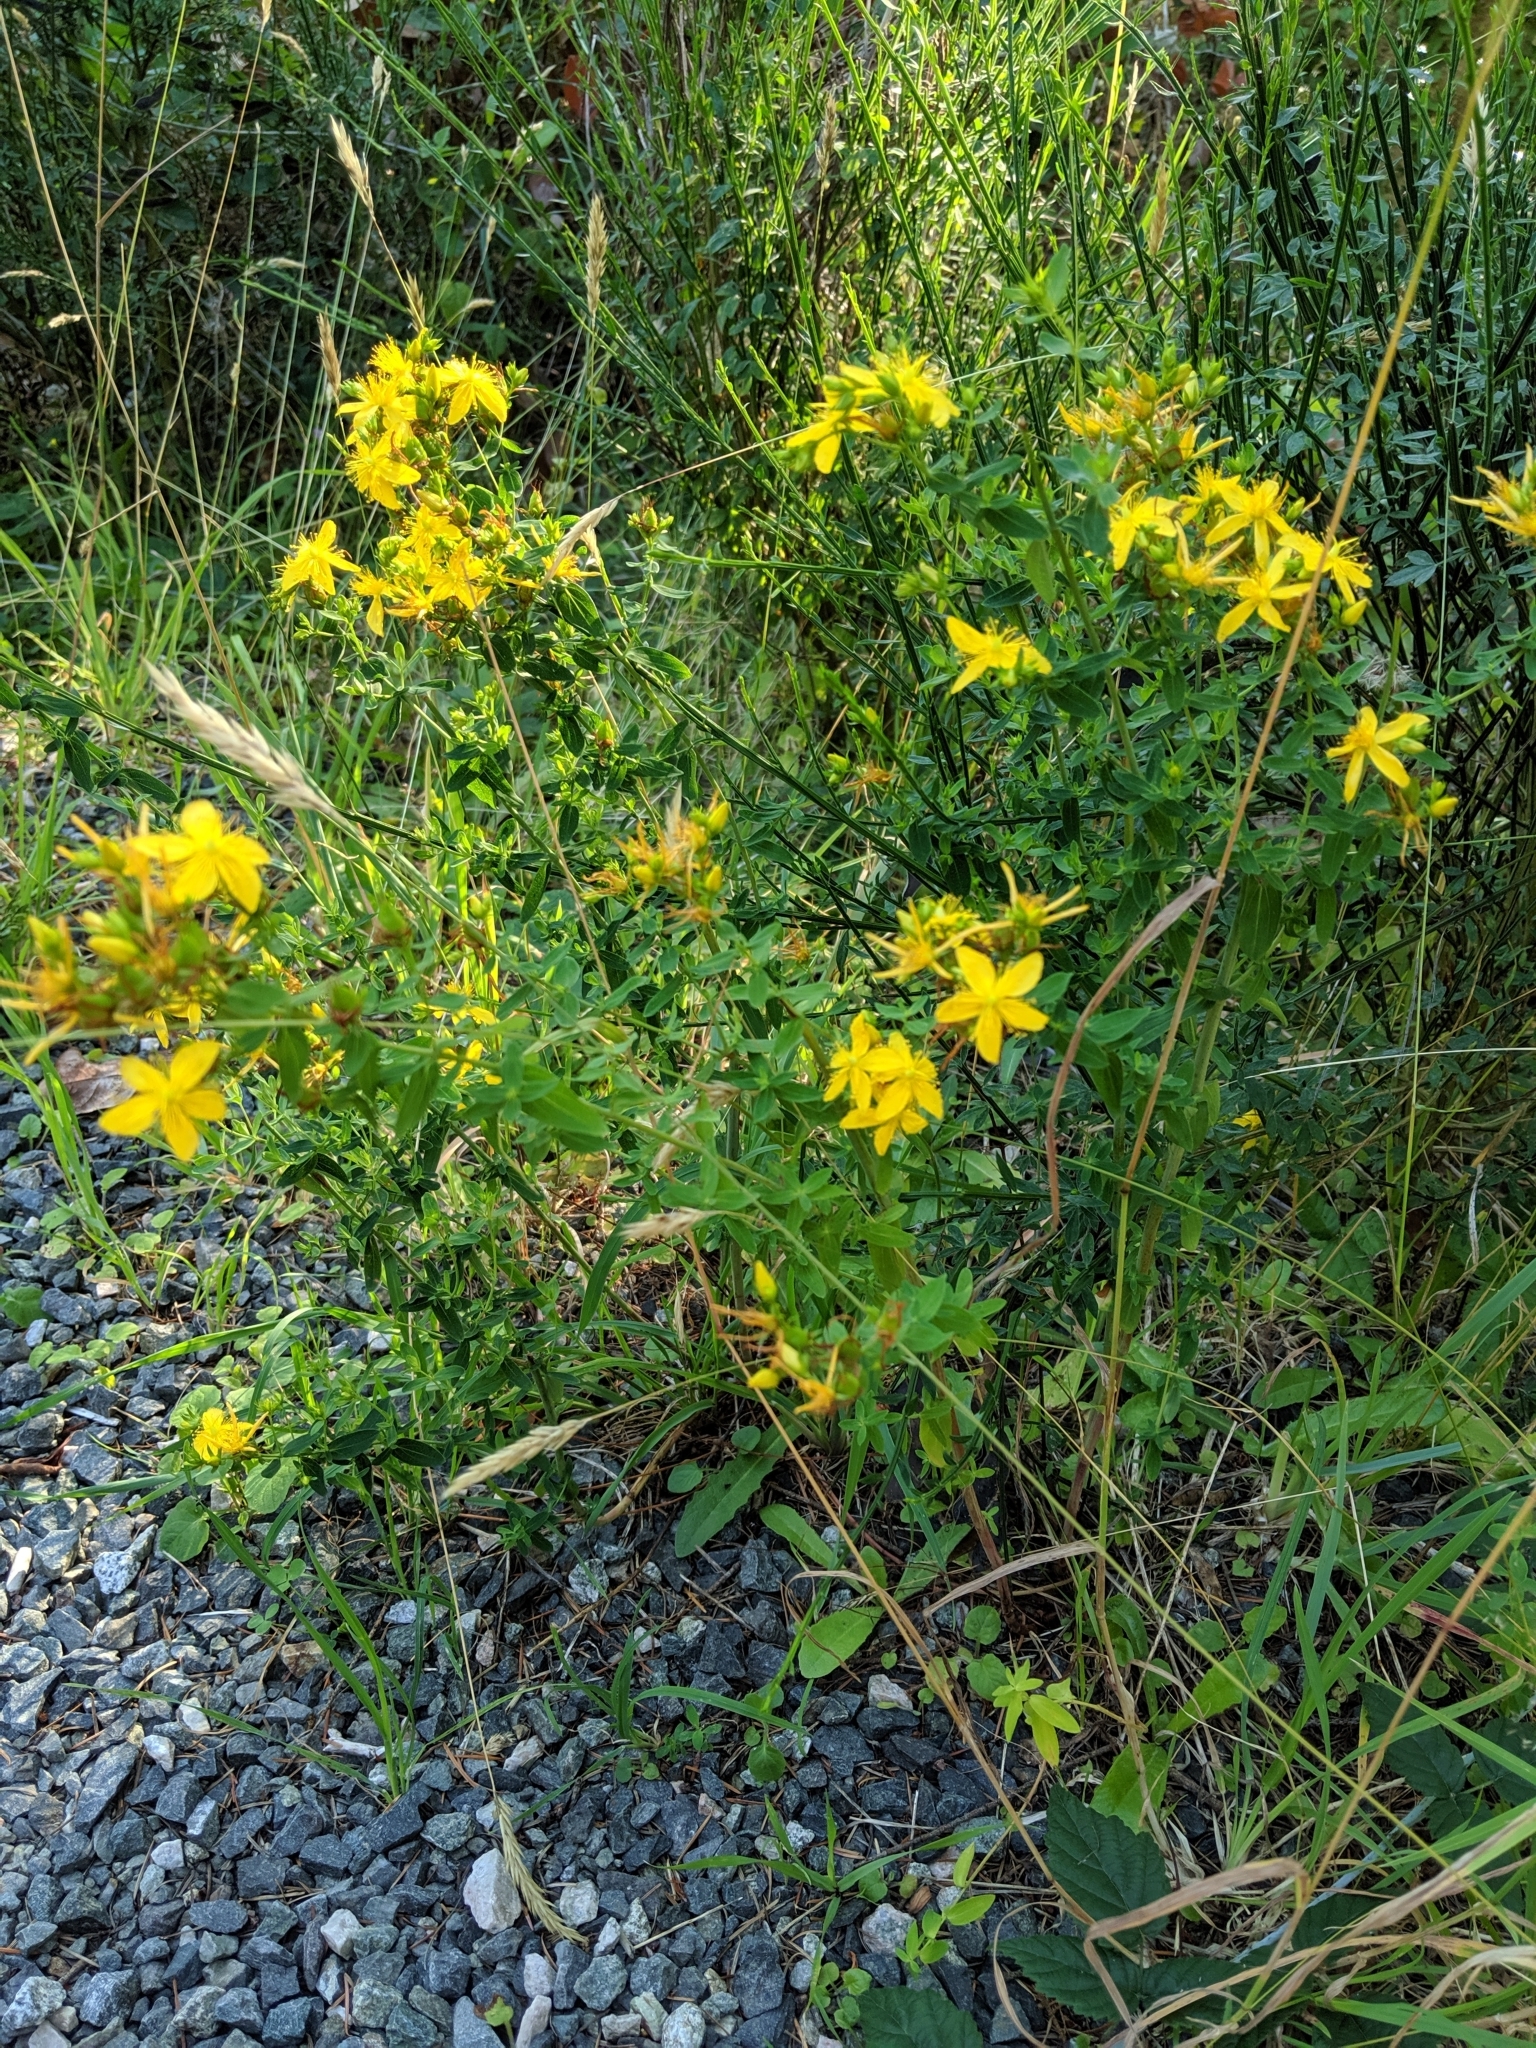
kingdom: Plantae
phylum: Tracheophyta
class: Magnoliopsida
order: Malpighiales
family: Hypericaceae
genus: Hypericum
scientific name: Hypericum perforatum
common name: Common st. johnswort
